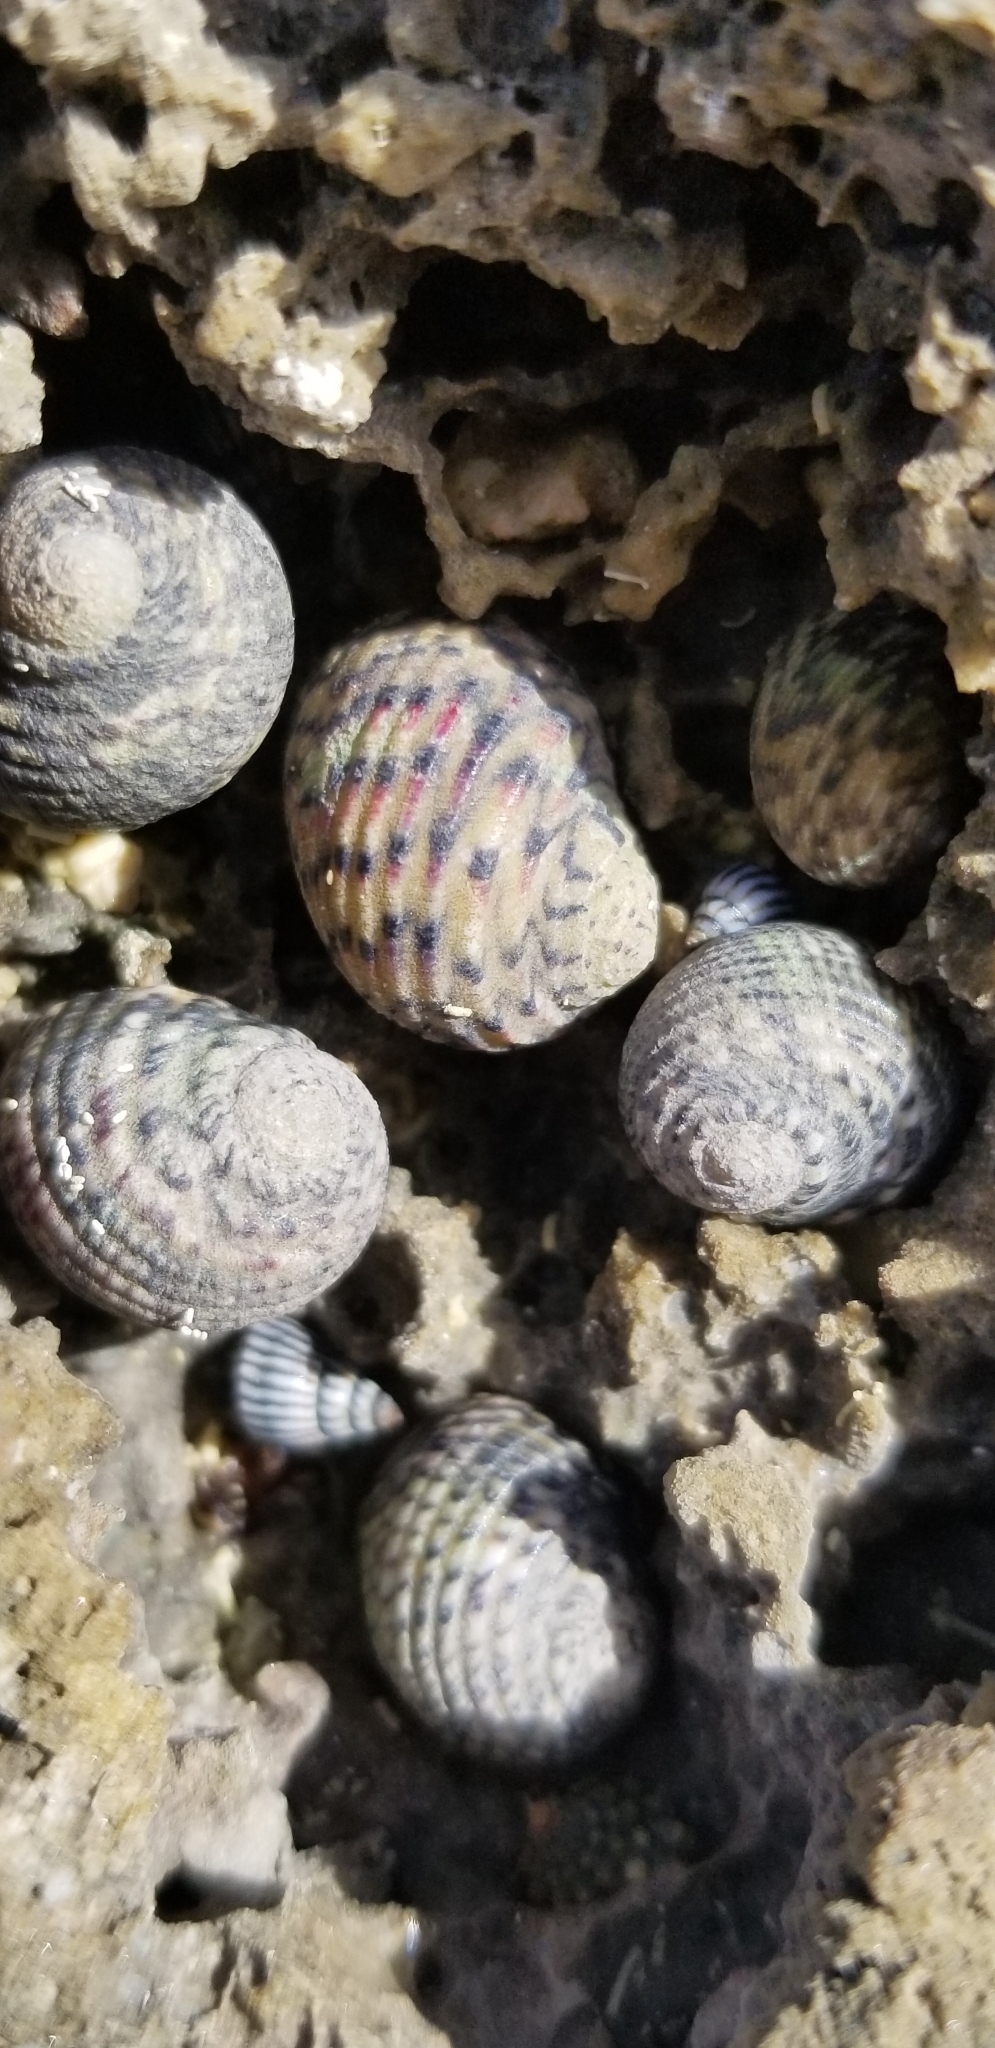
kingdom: Animalia
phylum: Mollusca
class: Gastropoda
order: Cycloneritida
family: Neritidae
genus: Nerita
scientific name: Nerita versicolor
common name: Four-tooth nerite
